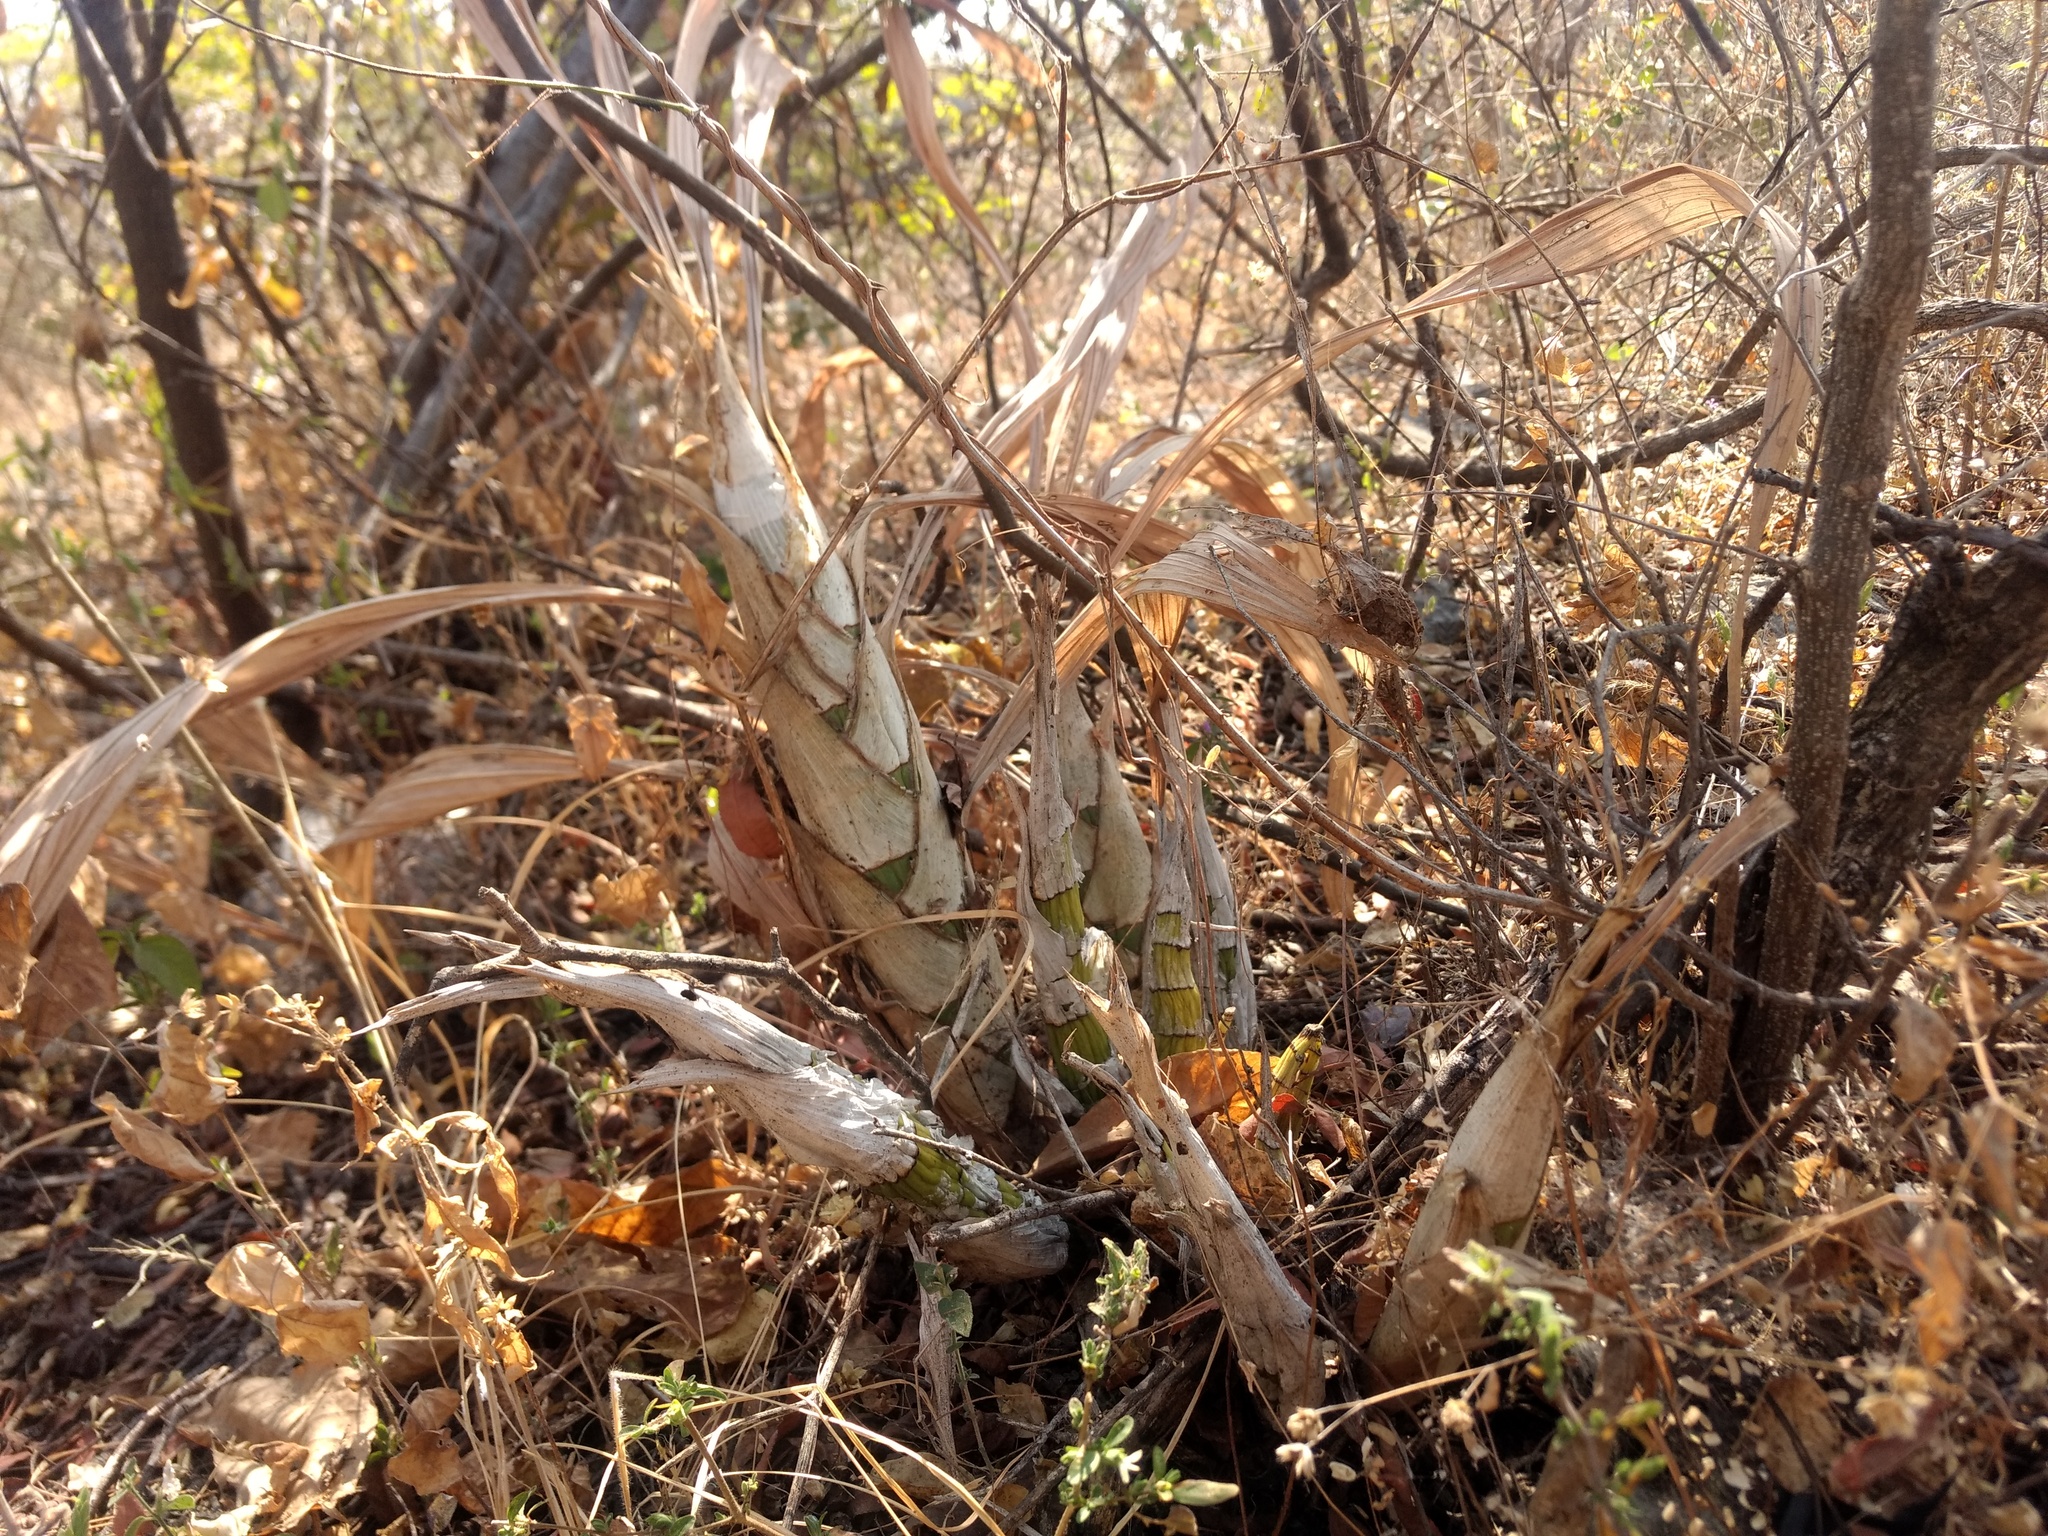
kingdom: Plantae
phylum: Tracheophyta
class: Liliopsida
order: Asparagales
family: Orchidaceae
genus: Cyrtopodium
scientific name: Cyrtopodium macrobulbon
